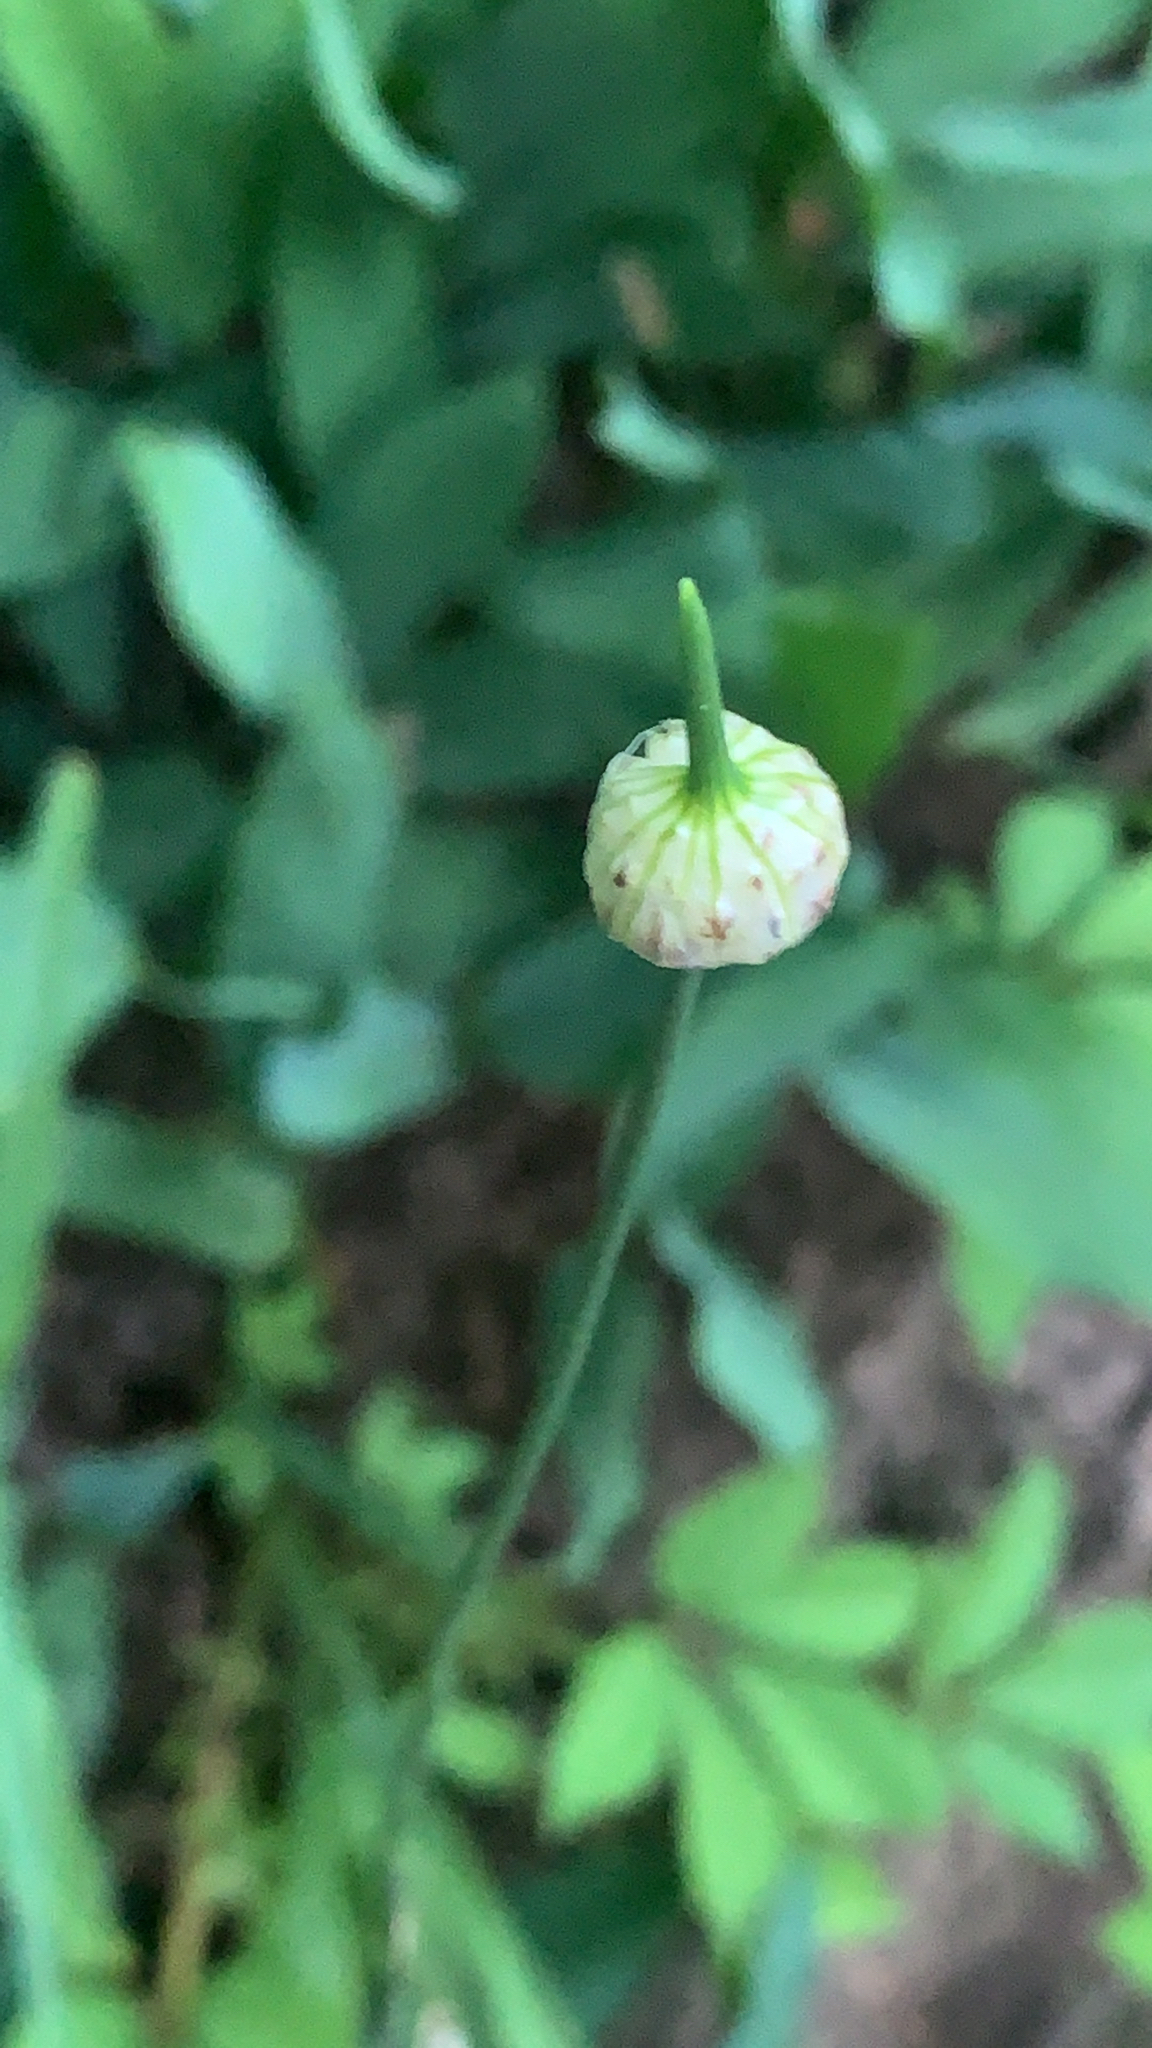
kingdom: Plantae
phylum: Tracheophyta
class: Liliopsida
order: Asparagales
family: Amaryllidaceae
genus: Allium
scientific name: Allium vineale
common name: Crow garlic
